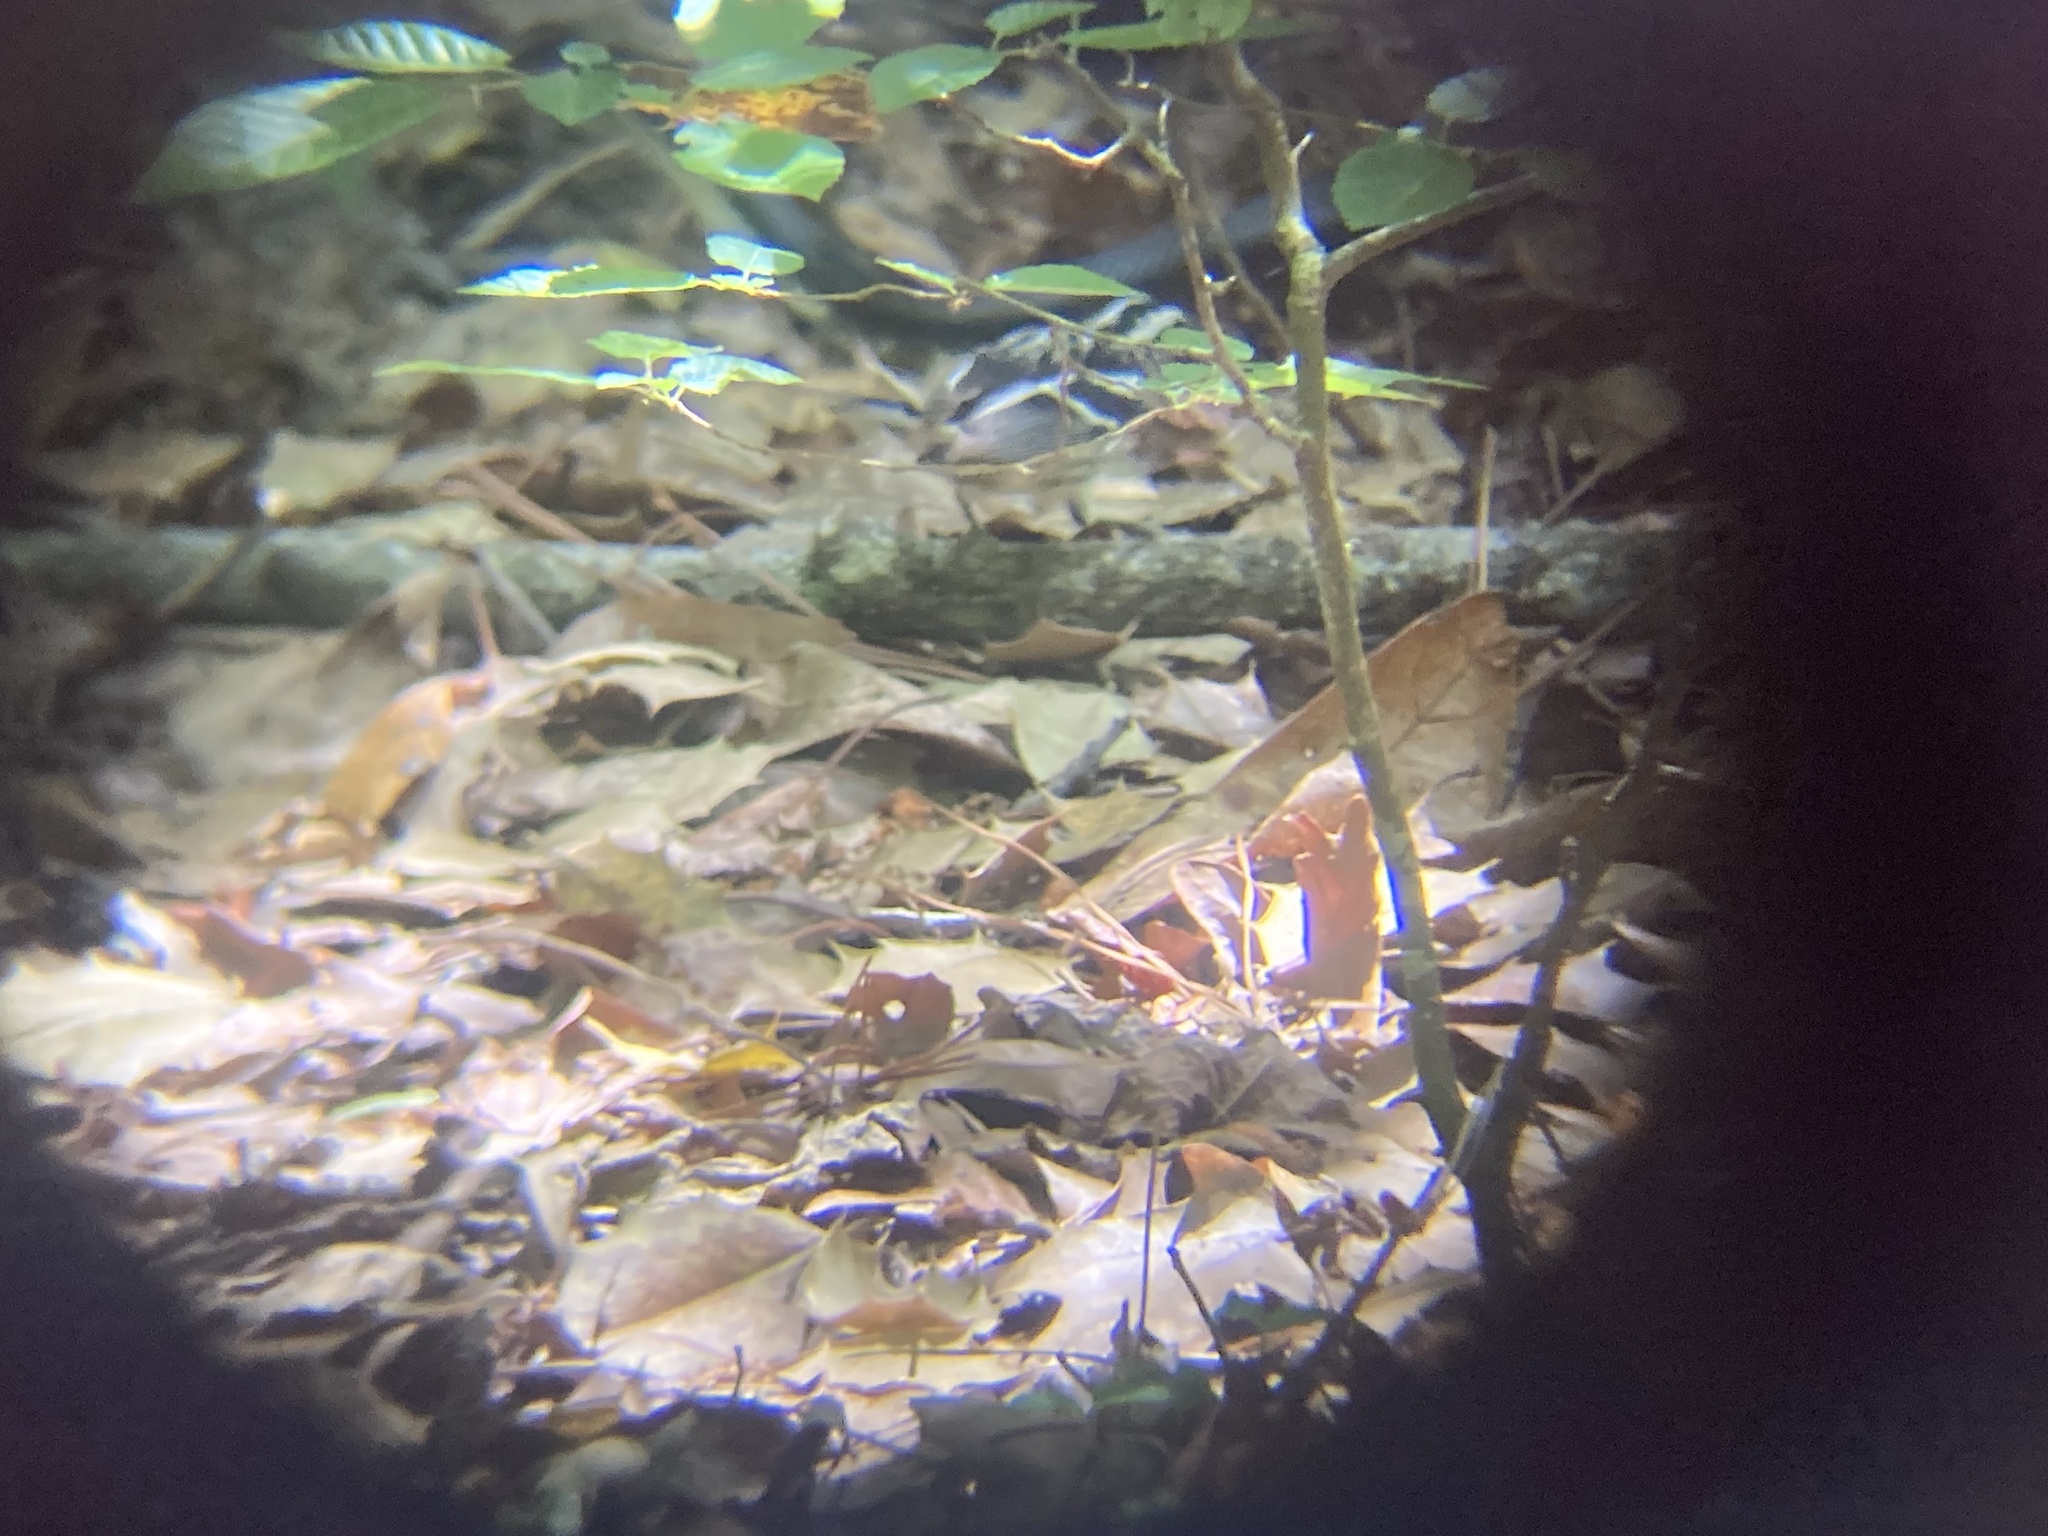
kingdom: Animalia
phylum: Chordata
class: Aves
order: Passeriformes
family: Parulidae
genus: Mniotilta
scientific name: Mniotilta varia
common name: Black-and-white warbler
